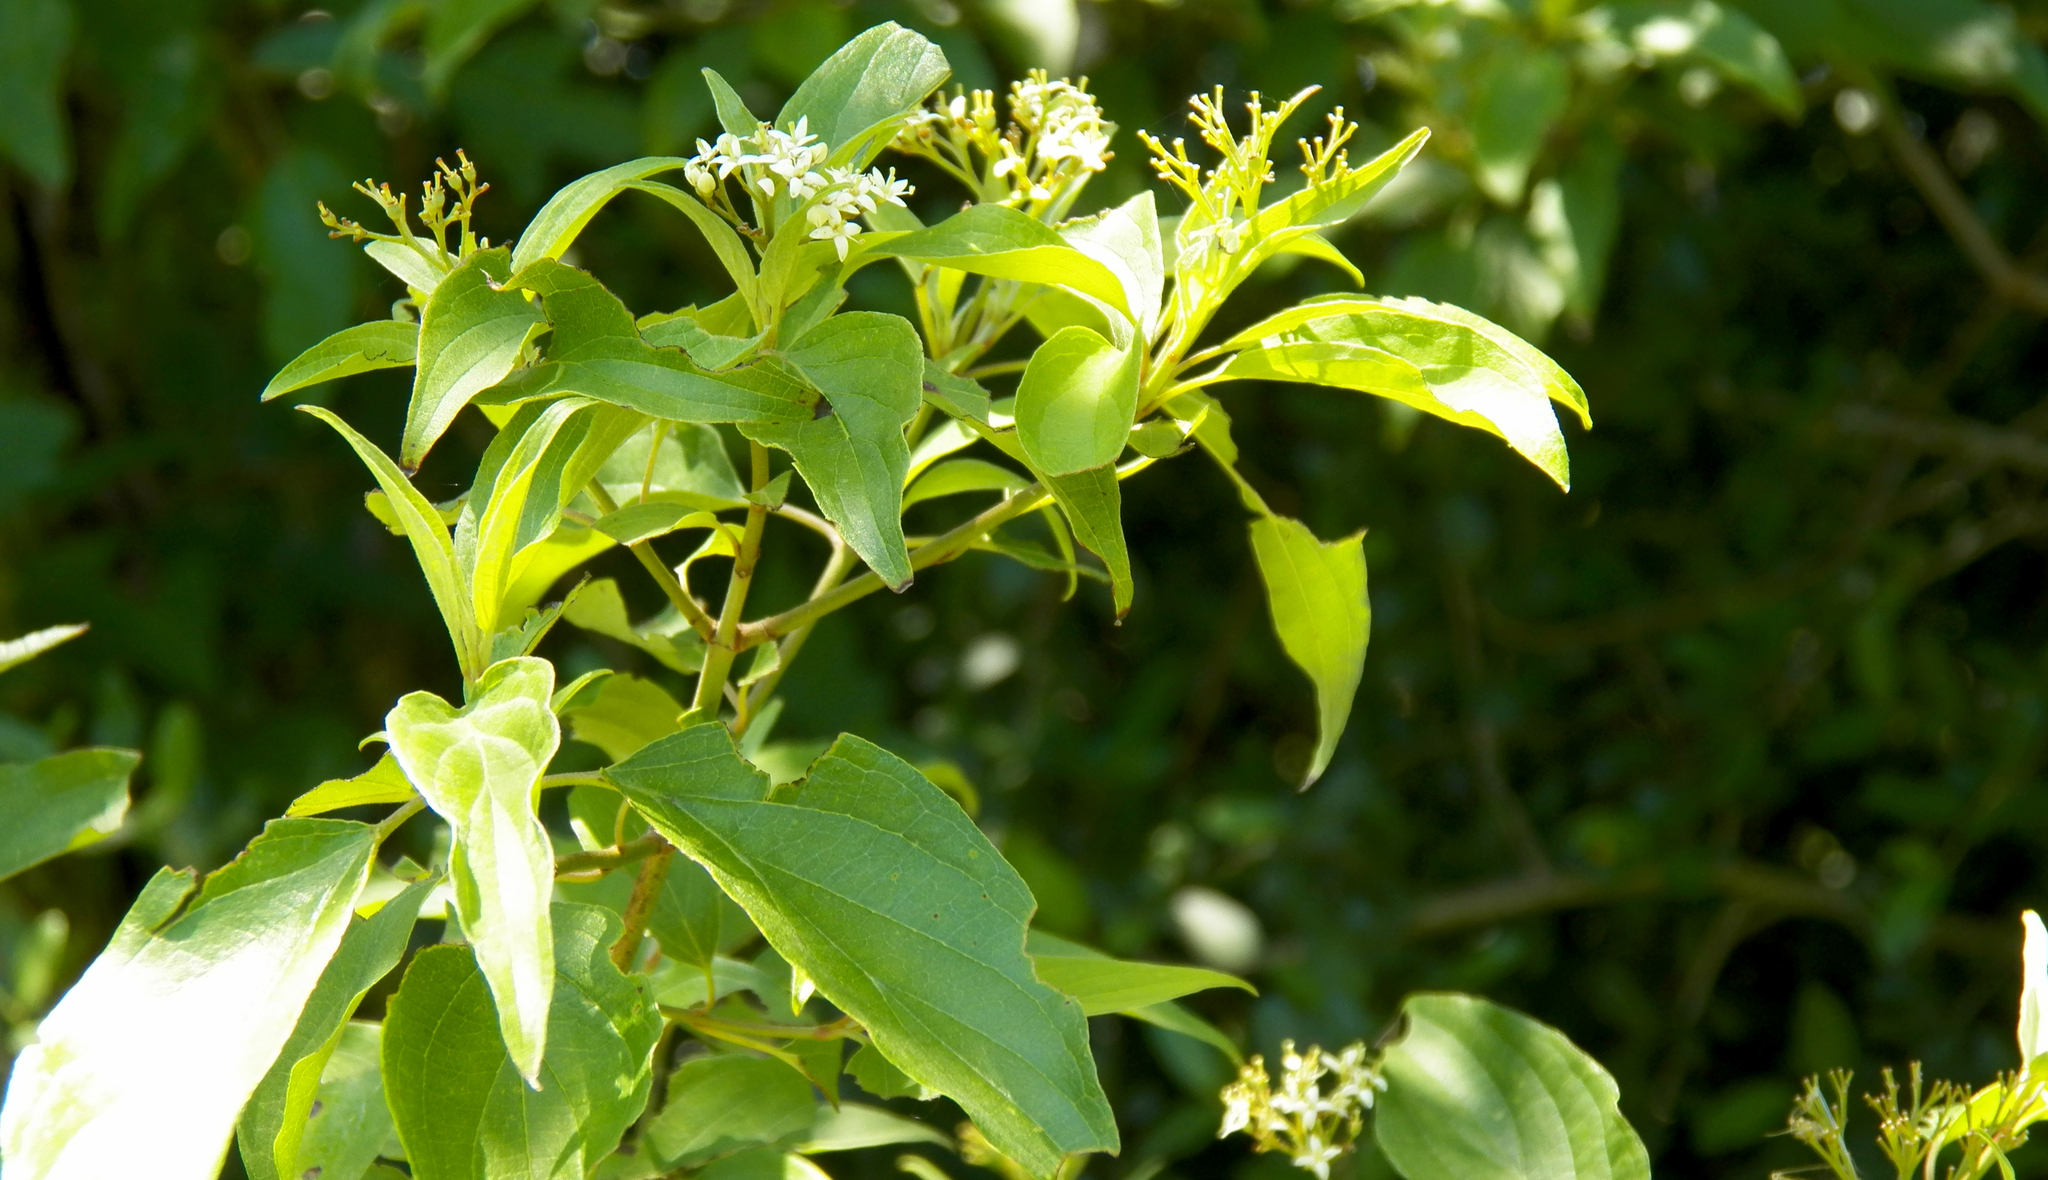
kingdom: Plantae
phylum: Tracheophyta
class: Magnoliopsida
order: Cornales
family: Cornaceae
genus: Cornus
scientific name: Cornus drummondii
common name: Rough-leaf dogwood
